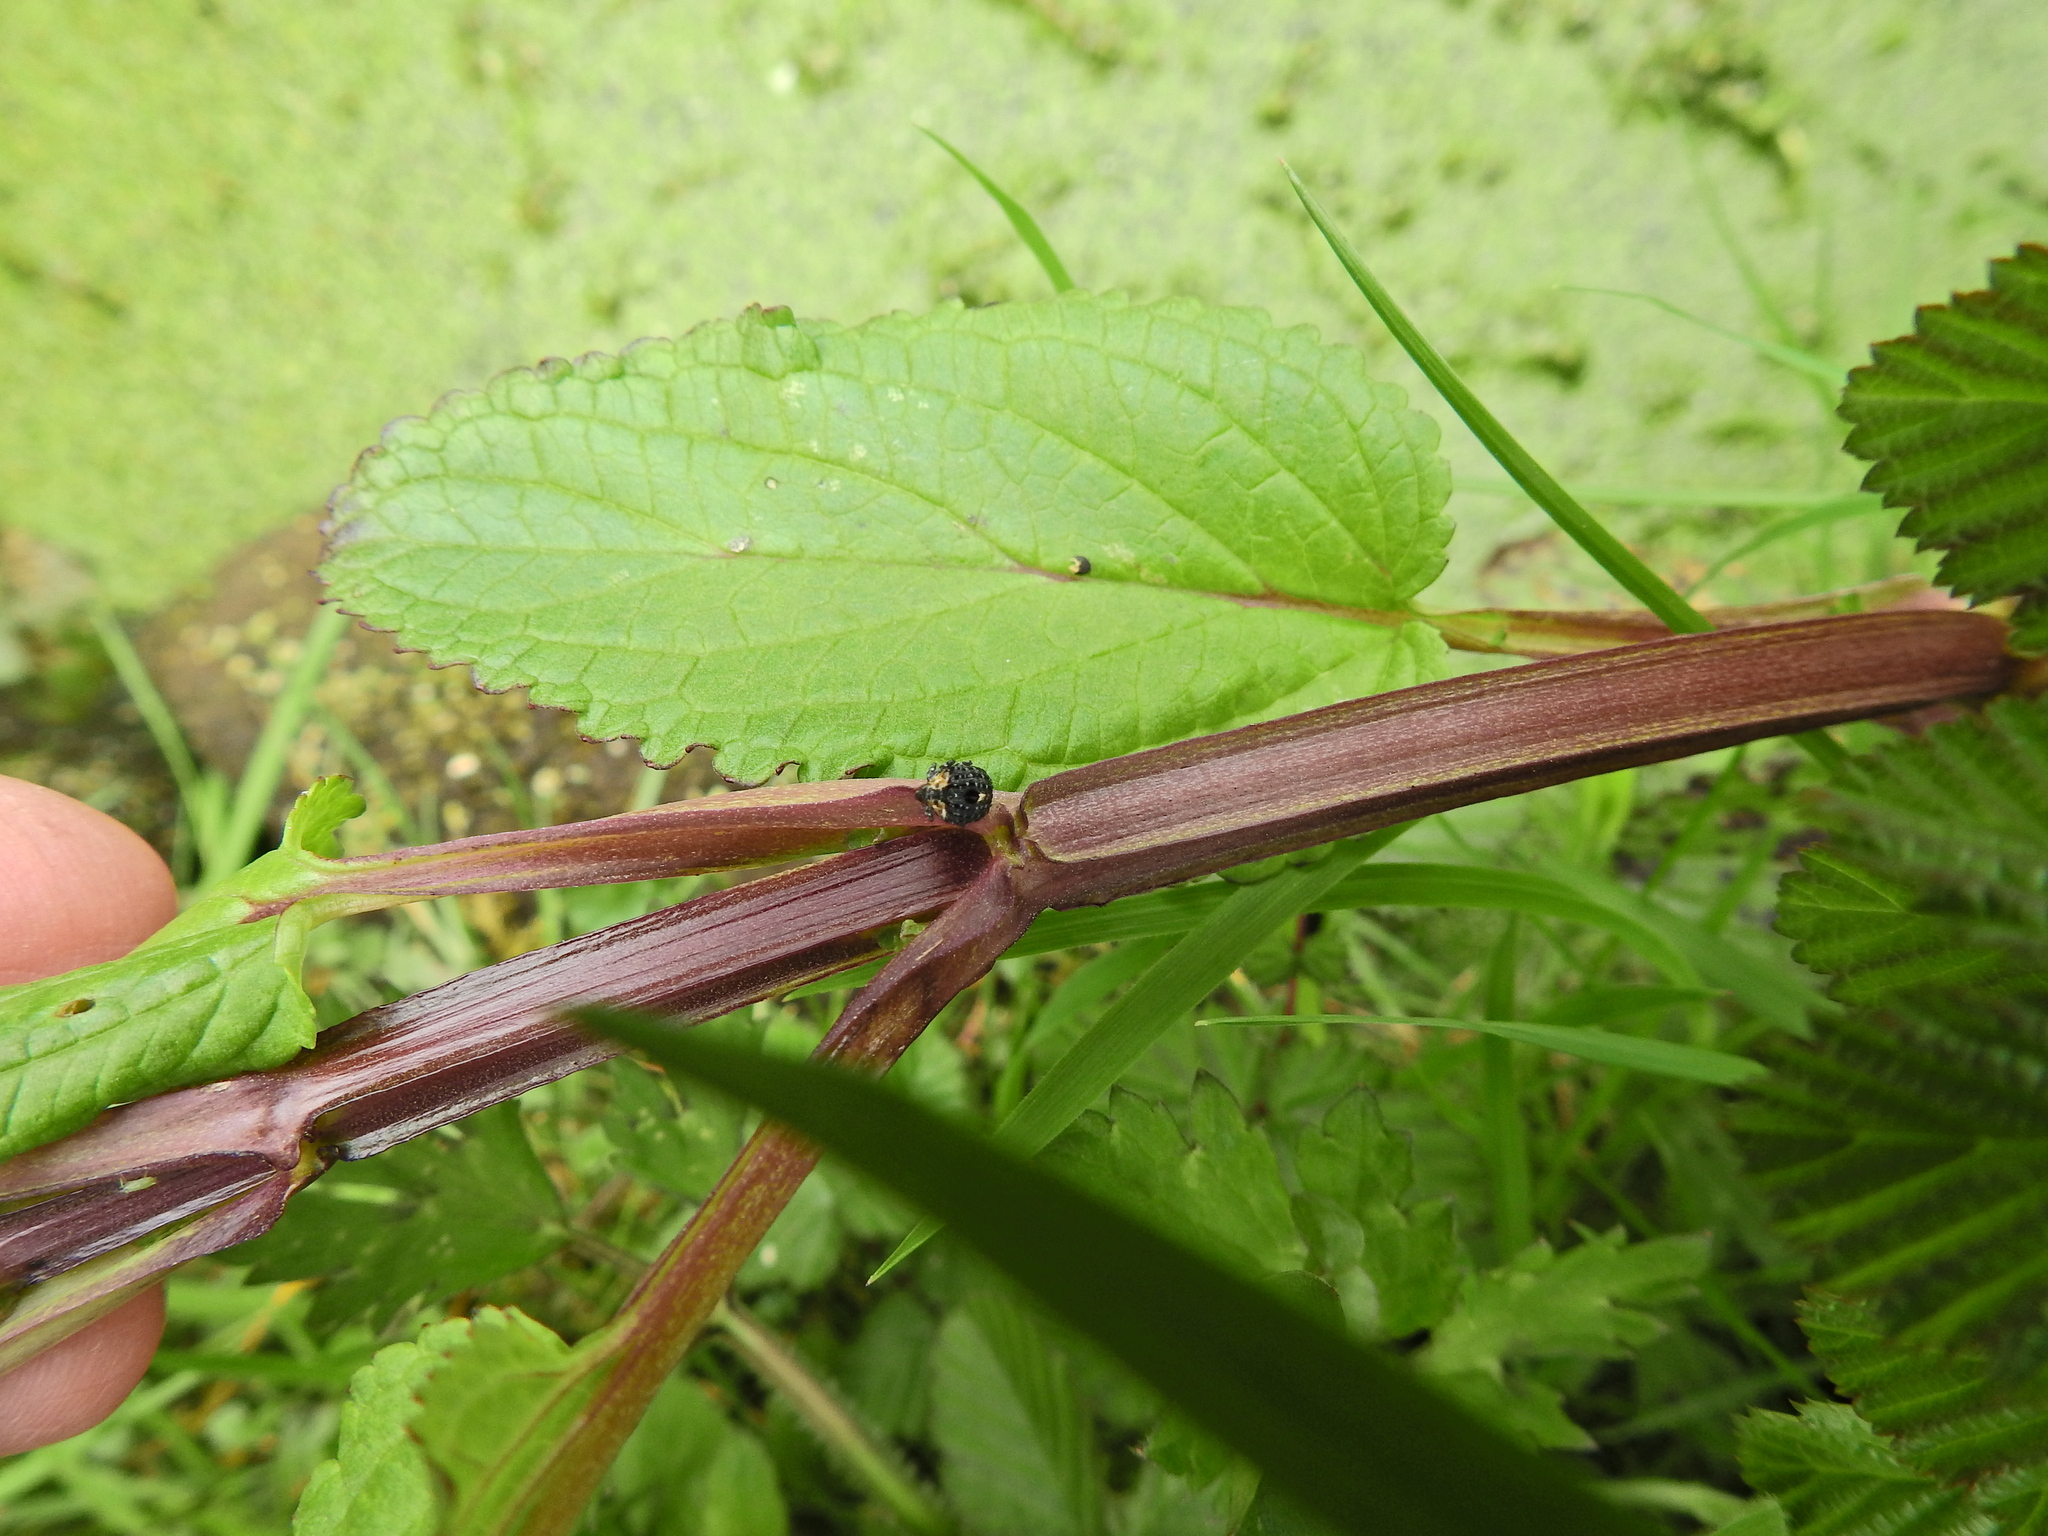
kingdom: Animalia
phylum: Arthropoda
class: Insecta
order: Coleoptera
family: Curculionidae
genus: Cionus
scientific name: Cionus tuberculosus
